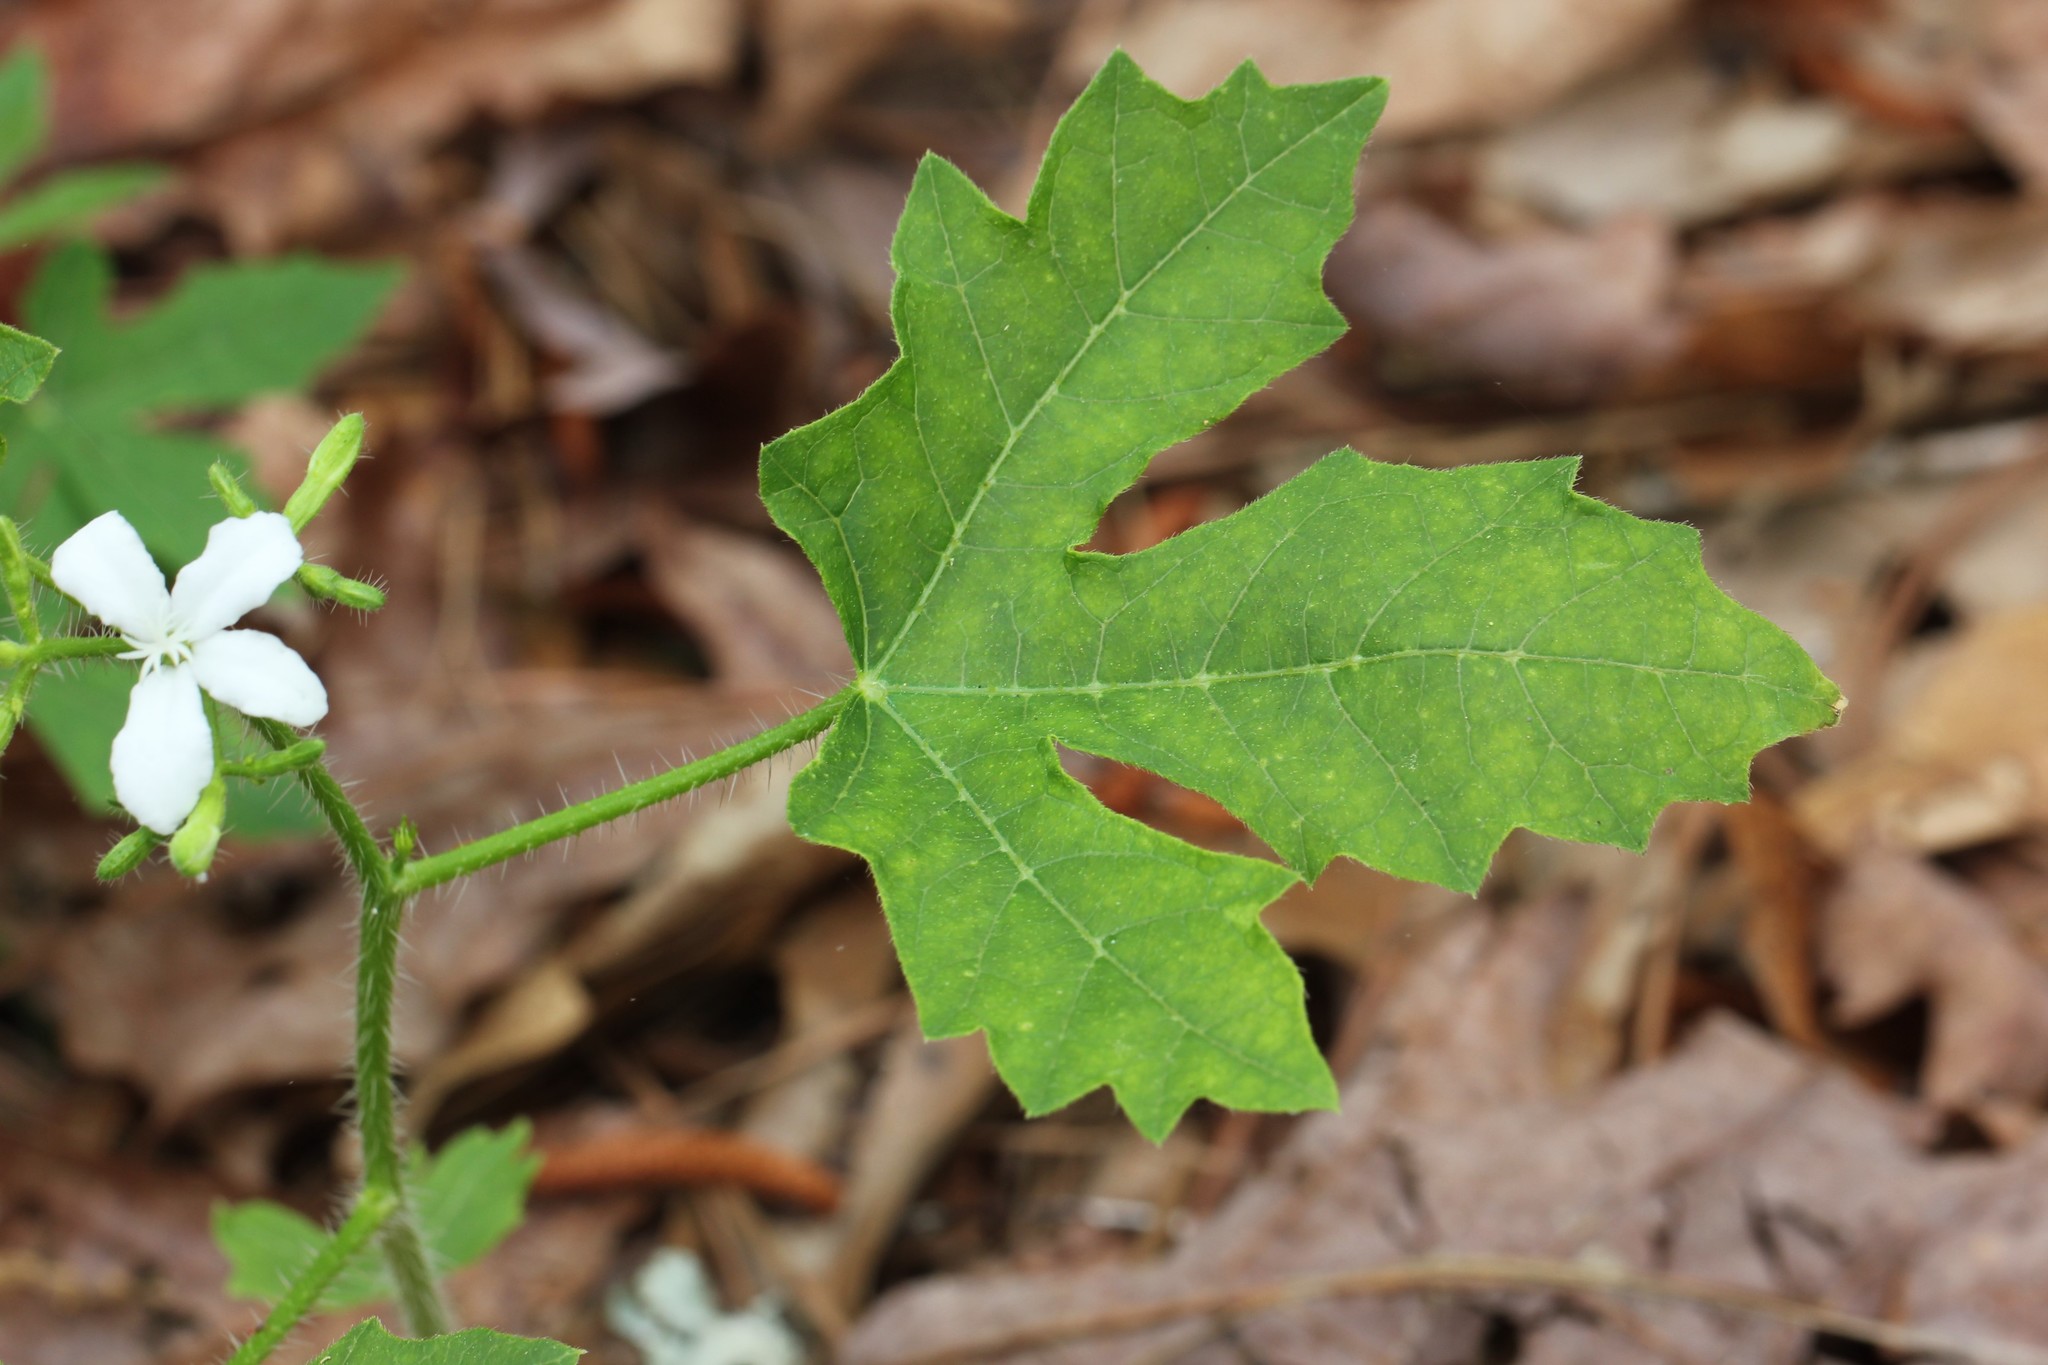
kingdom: Plantae
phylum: Tracheophyta
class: Magnoliopsida
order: Malpighiales
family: Euphorbiaceae
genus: Cnidoscolus
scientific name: Cnidoscolus stimulosus
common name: Bull-nettle
